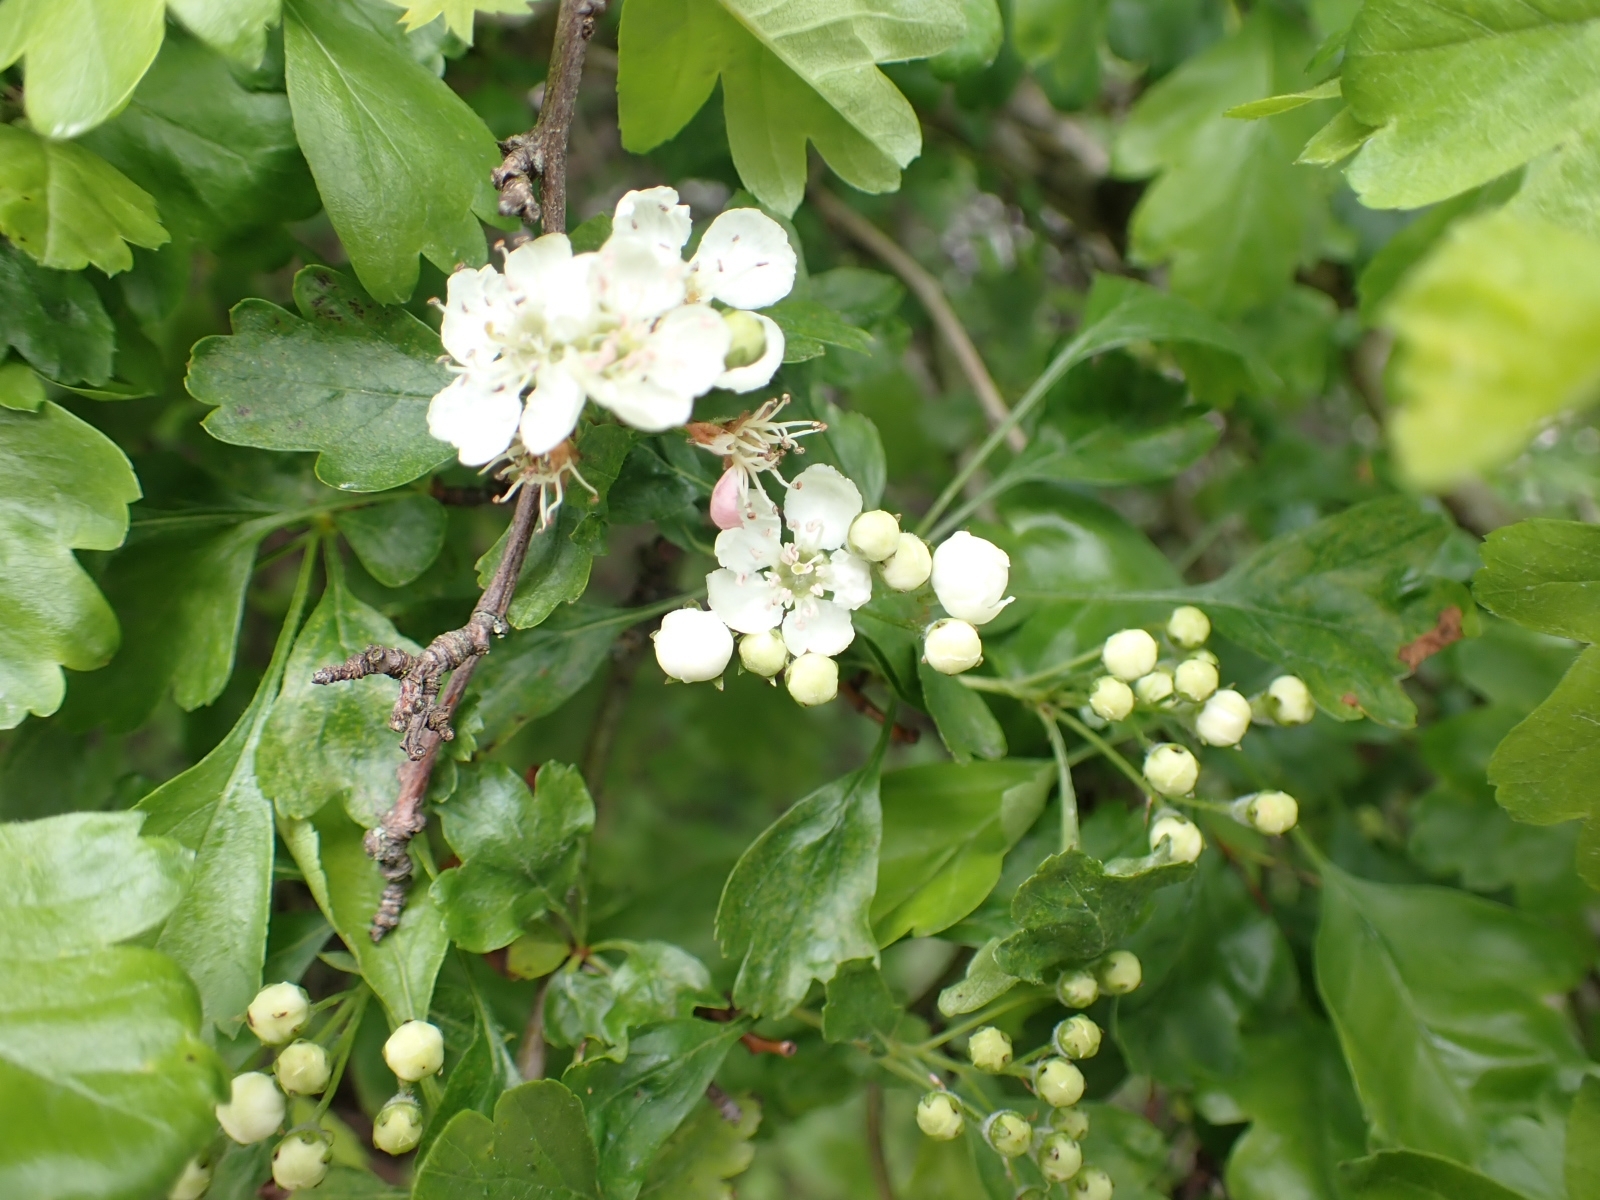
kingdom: Plantae
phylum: Tracheophyta
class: Magnoliopsida
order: Rosales
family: Rosaceae
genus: Crataegus
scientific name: Crataegus monogyna
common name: Hawthorn
